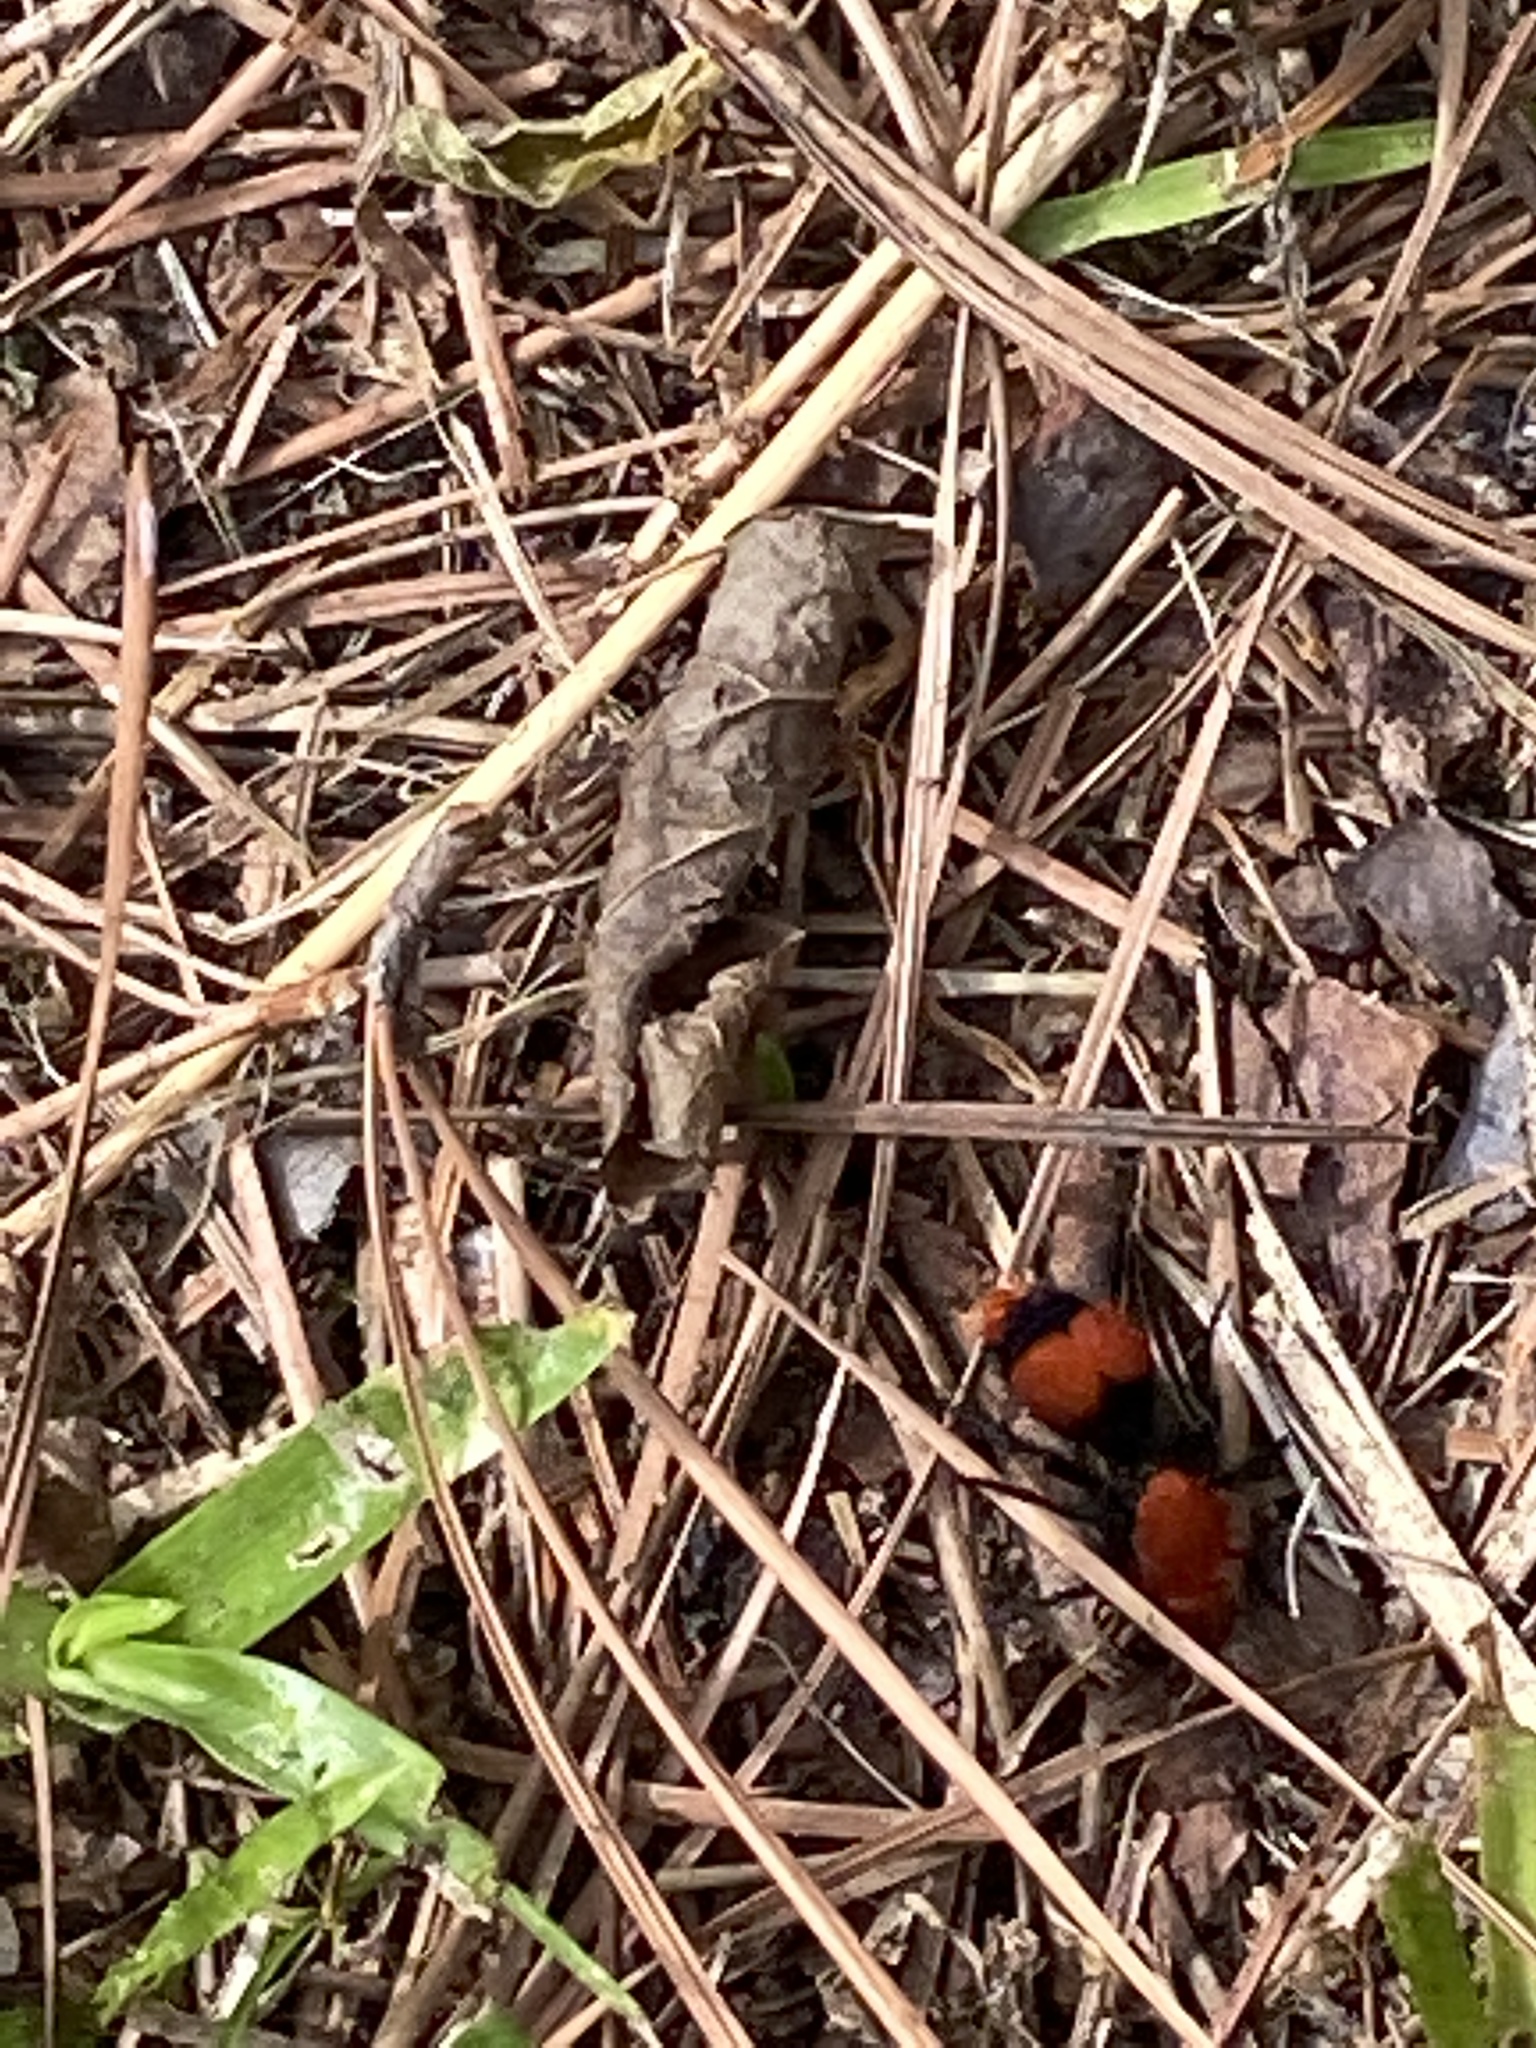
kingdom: Animalia
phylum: Arthropoda
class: Insecta
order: Hymenoptera
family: Mutillidae
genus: Dasymutilla
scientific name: Dasymutilla occidentalis
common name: Common eastern velvet ant
